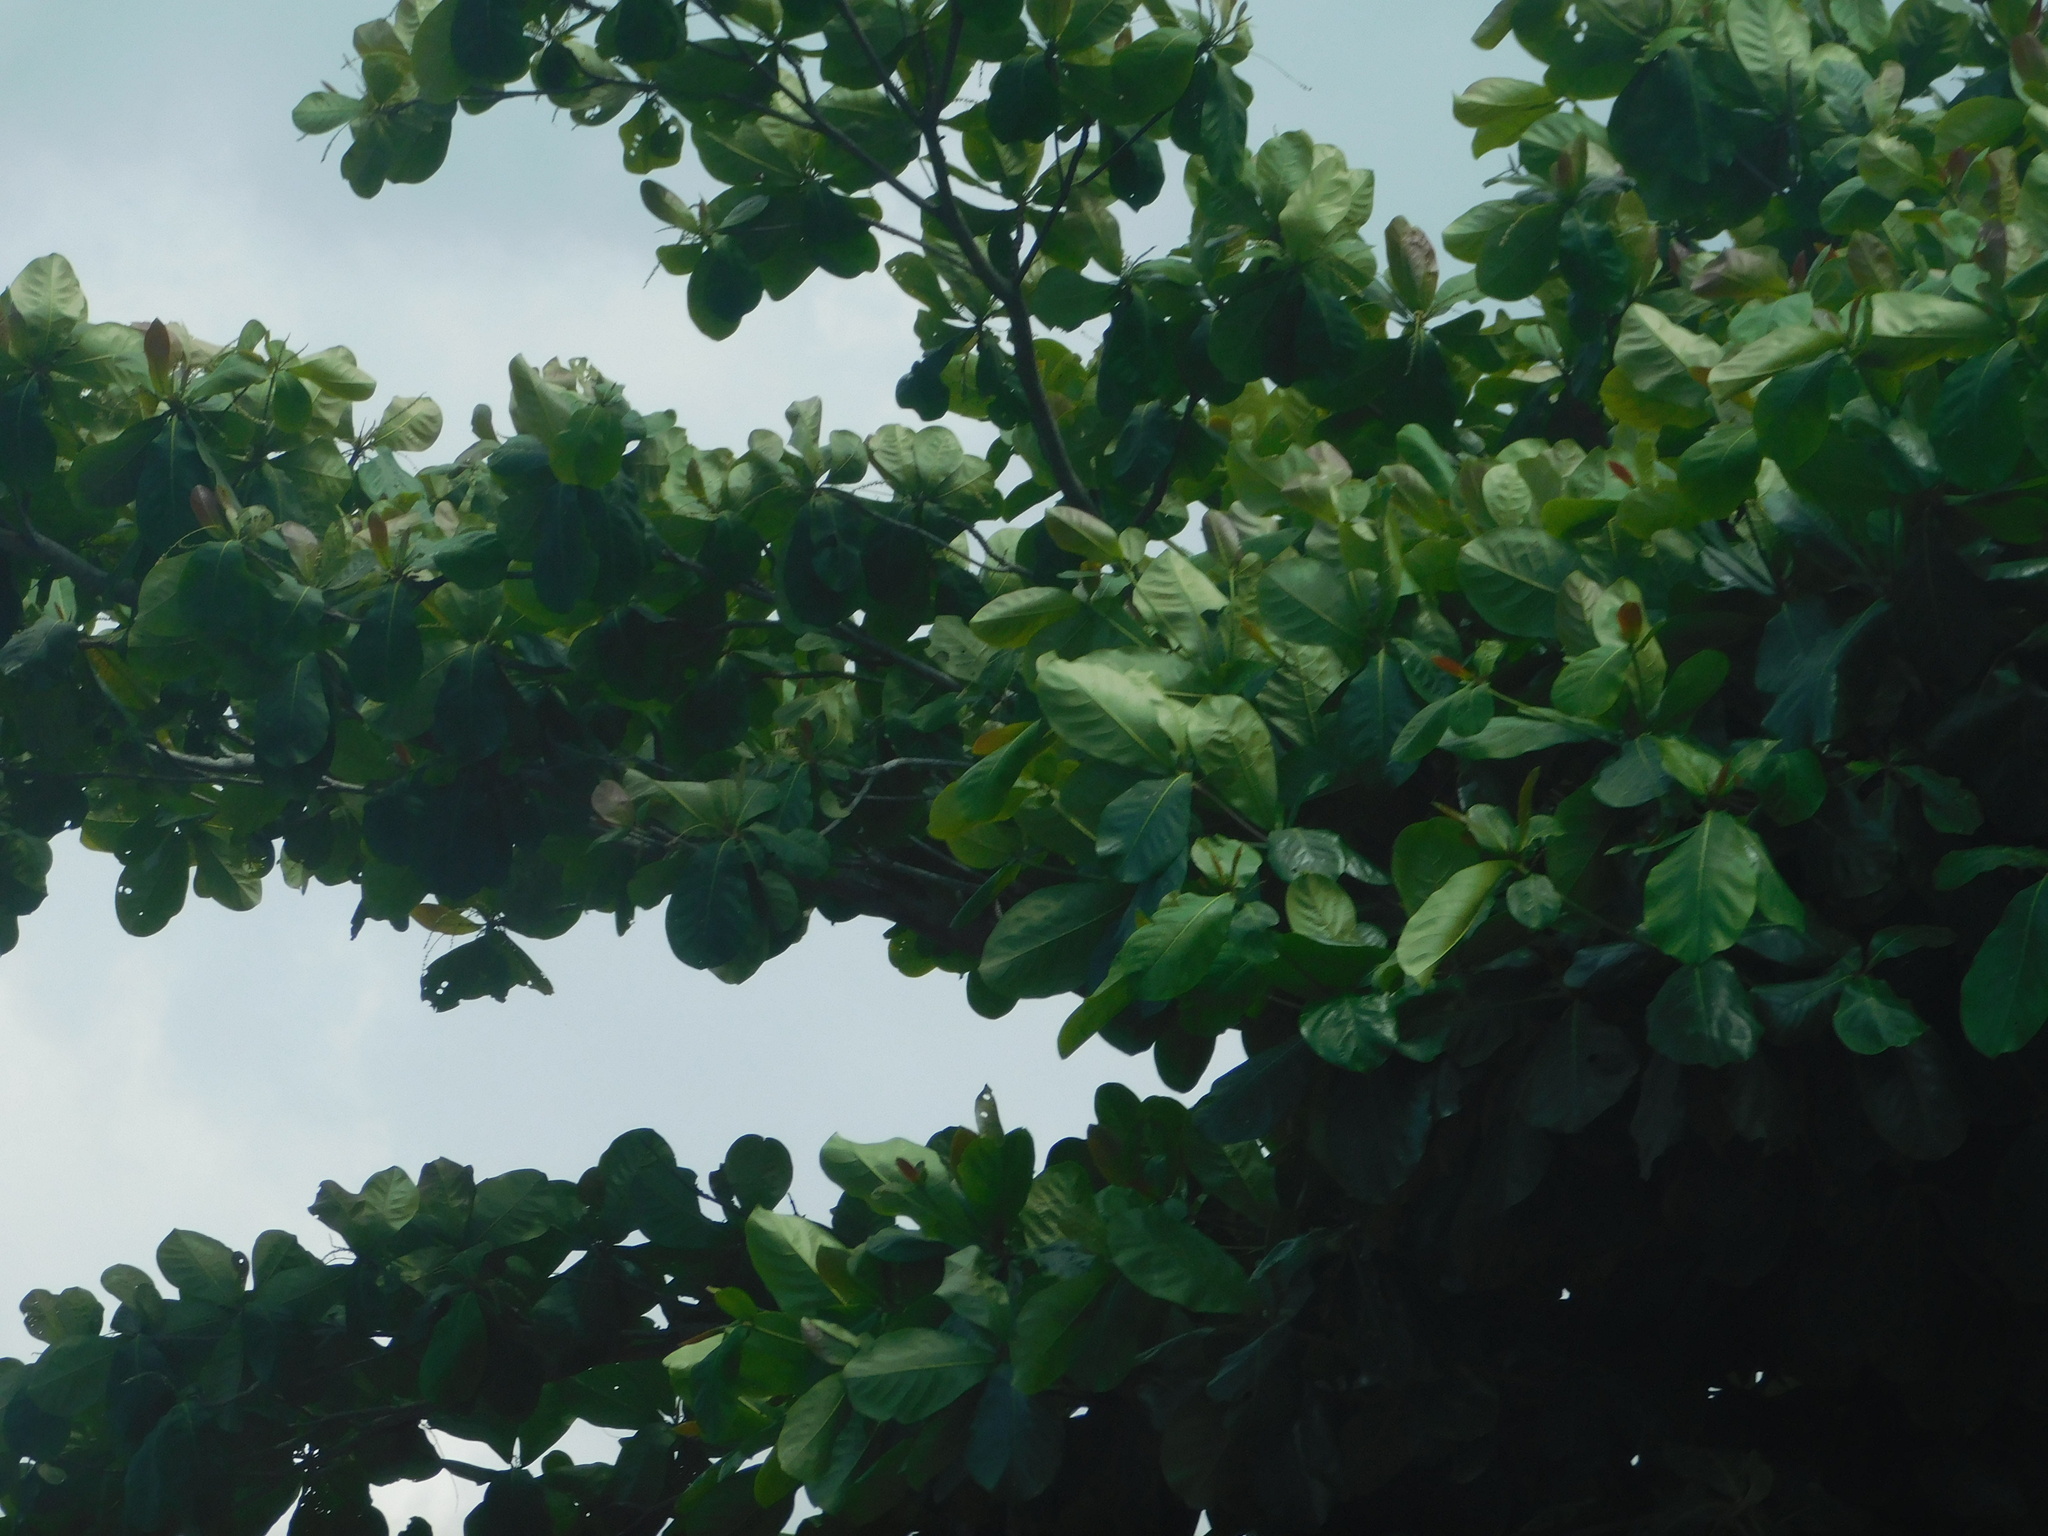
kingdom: Plantae
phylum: Tracheophyta
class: Magnoliopsida
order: Myrtales
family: Combretaceae
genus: Terminalia
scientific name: Terminalia catappa
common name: Tropical almond
